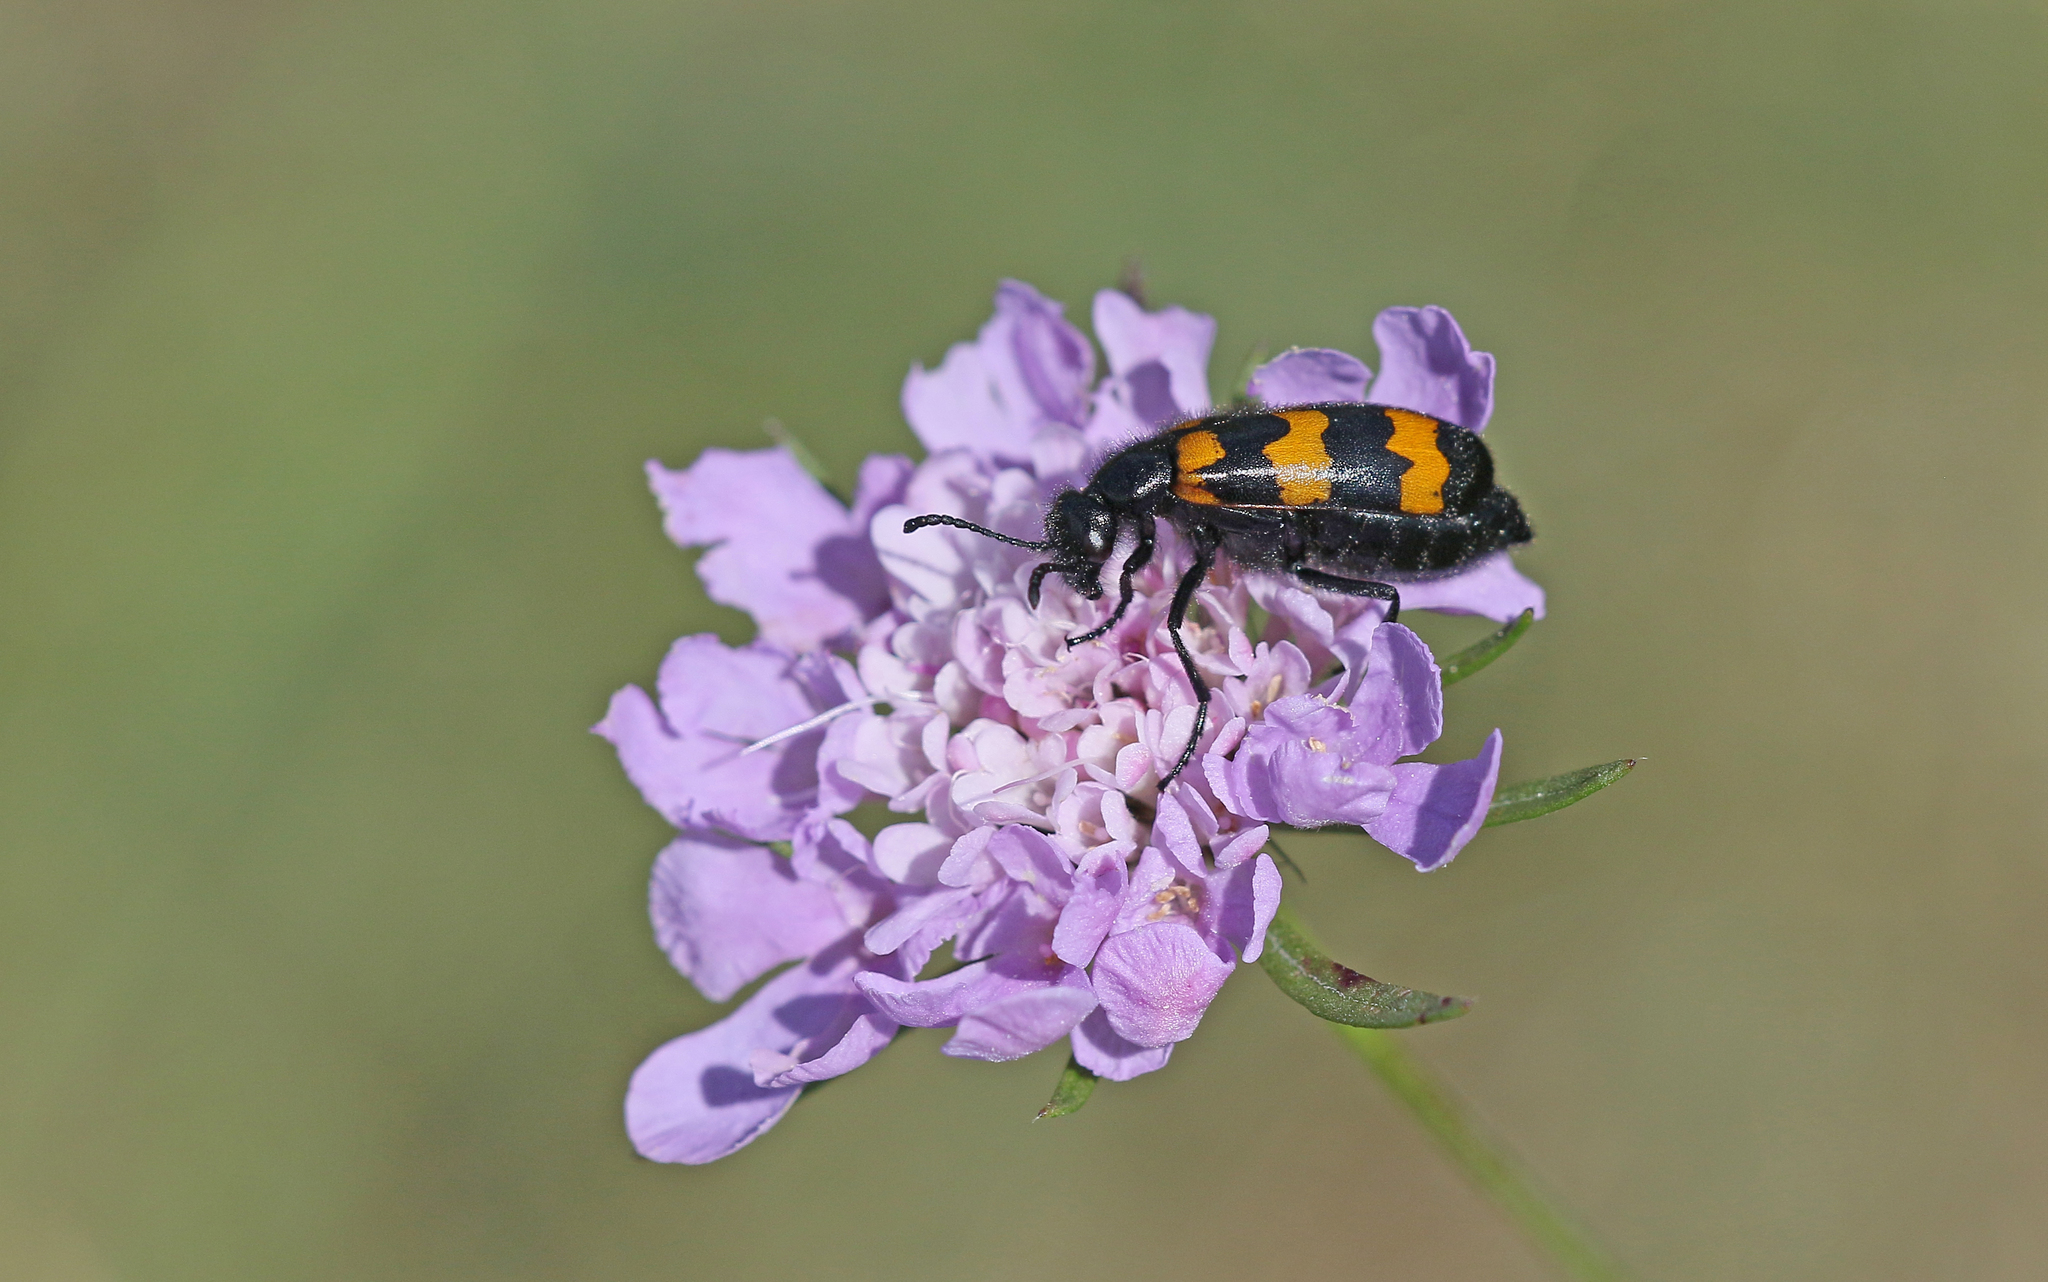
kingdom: Animalia
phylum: Arthropoda
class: Insecta
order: Coleoptera
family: Meloidae
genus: Mylabris
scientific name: Mylabris variabilis
